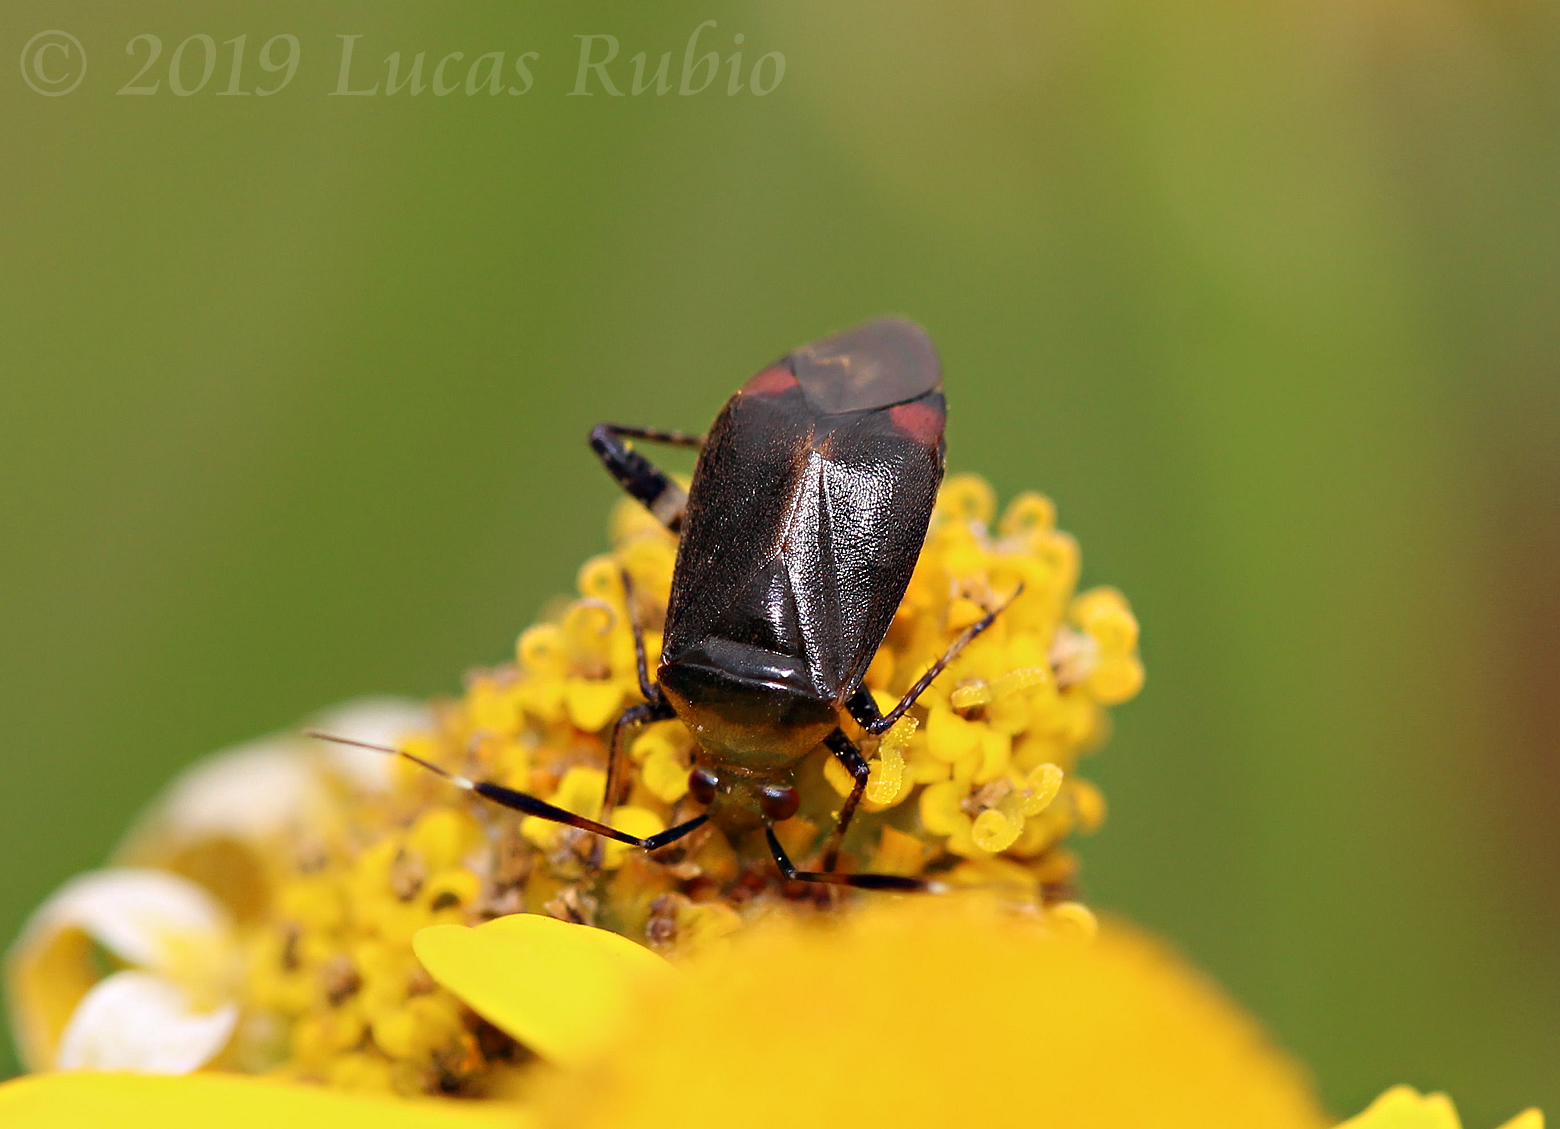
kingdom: Animalia
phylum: Arthropoda
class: Insecta
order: Hemiptera
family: Miridae
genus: Horciasinus
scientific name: Horciasinus argentinus
